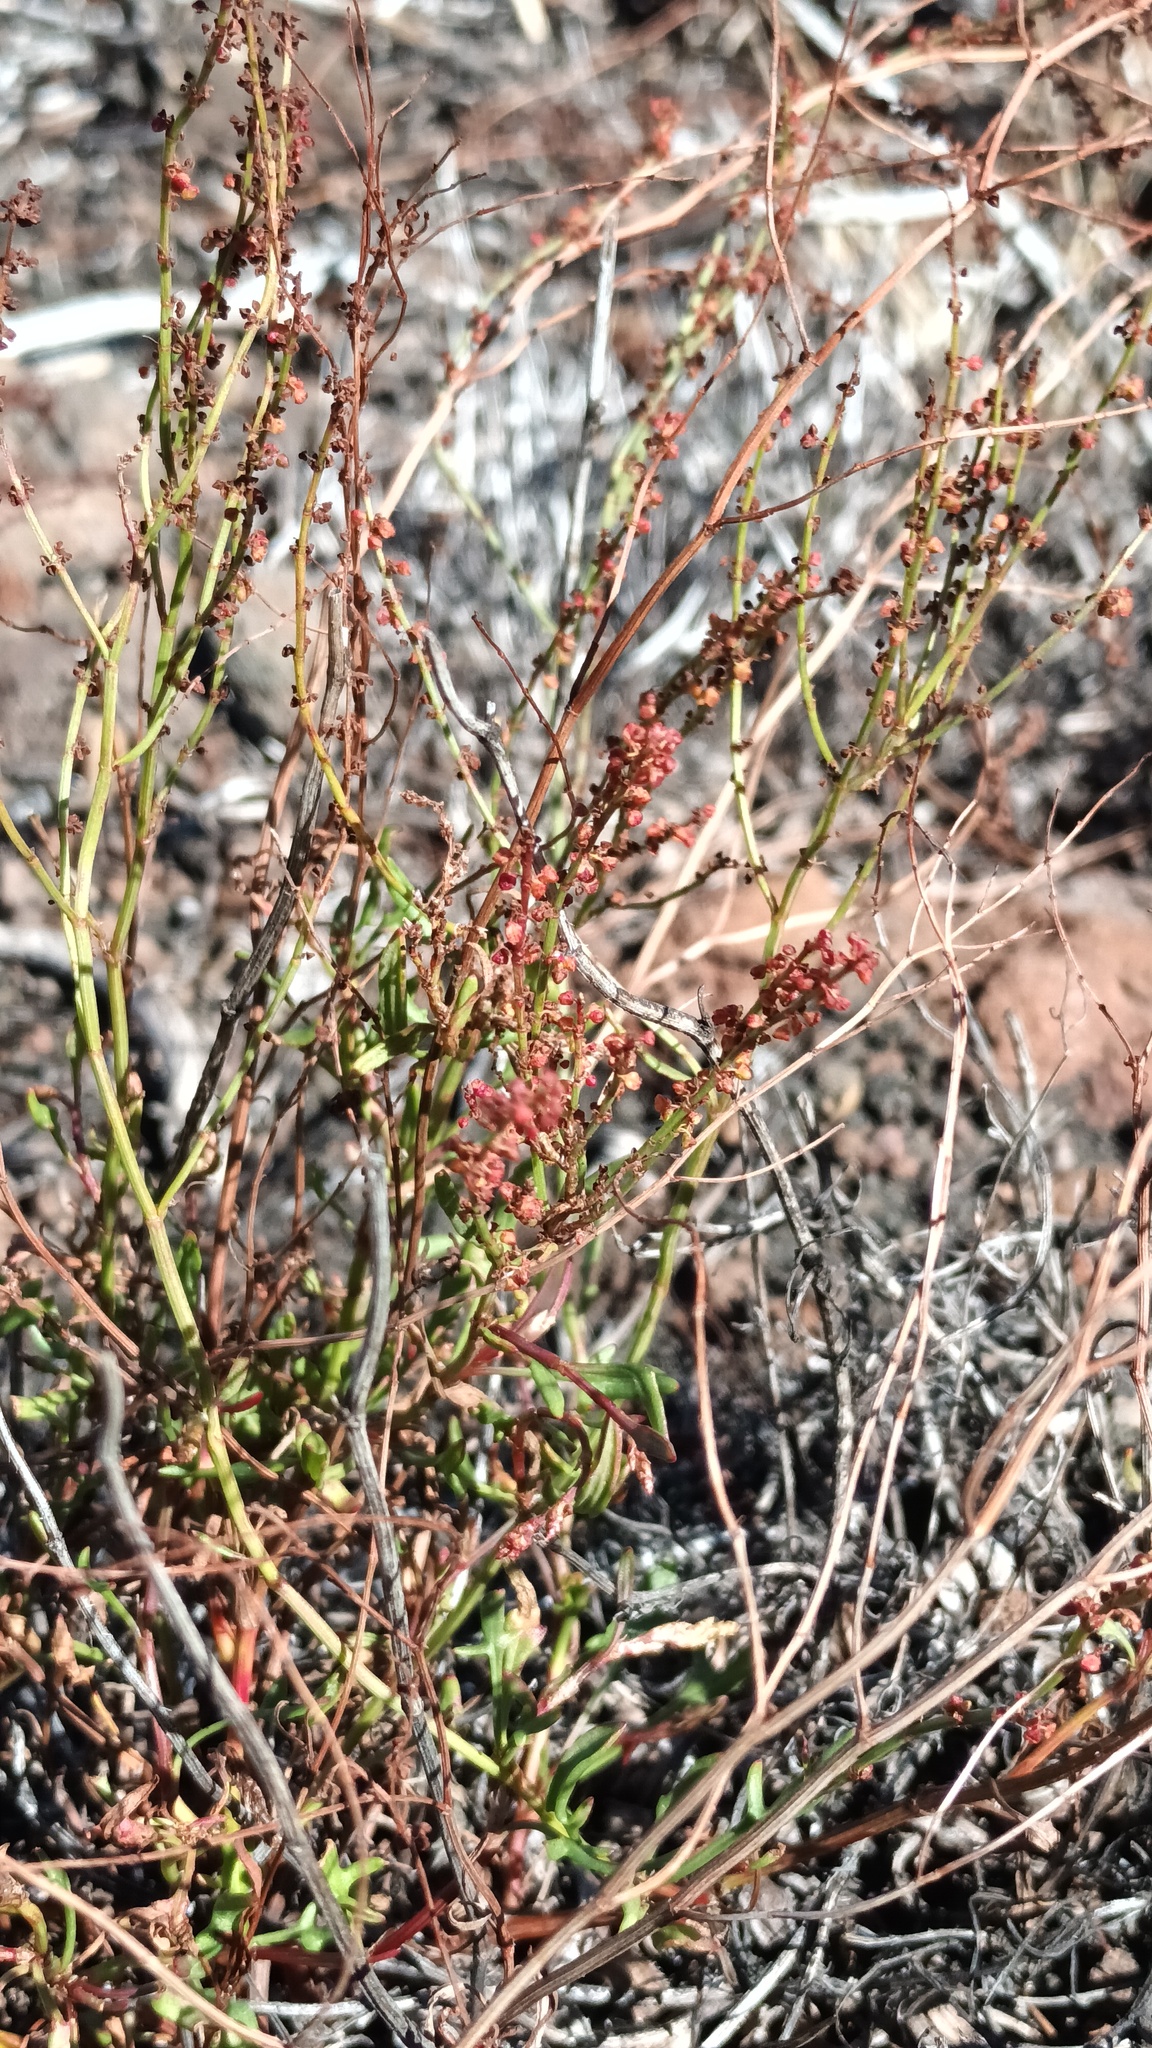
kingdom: Plantae
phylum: Tracheophyta
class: Magnoliopsida
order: Caryophyllales
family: Polygonaceae
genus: Rumex
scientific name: Rumex acetosella
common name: Common sheep sorrel
